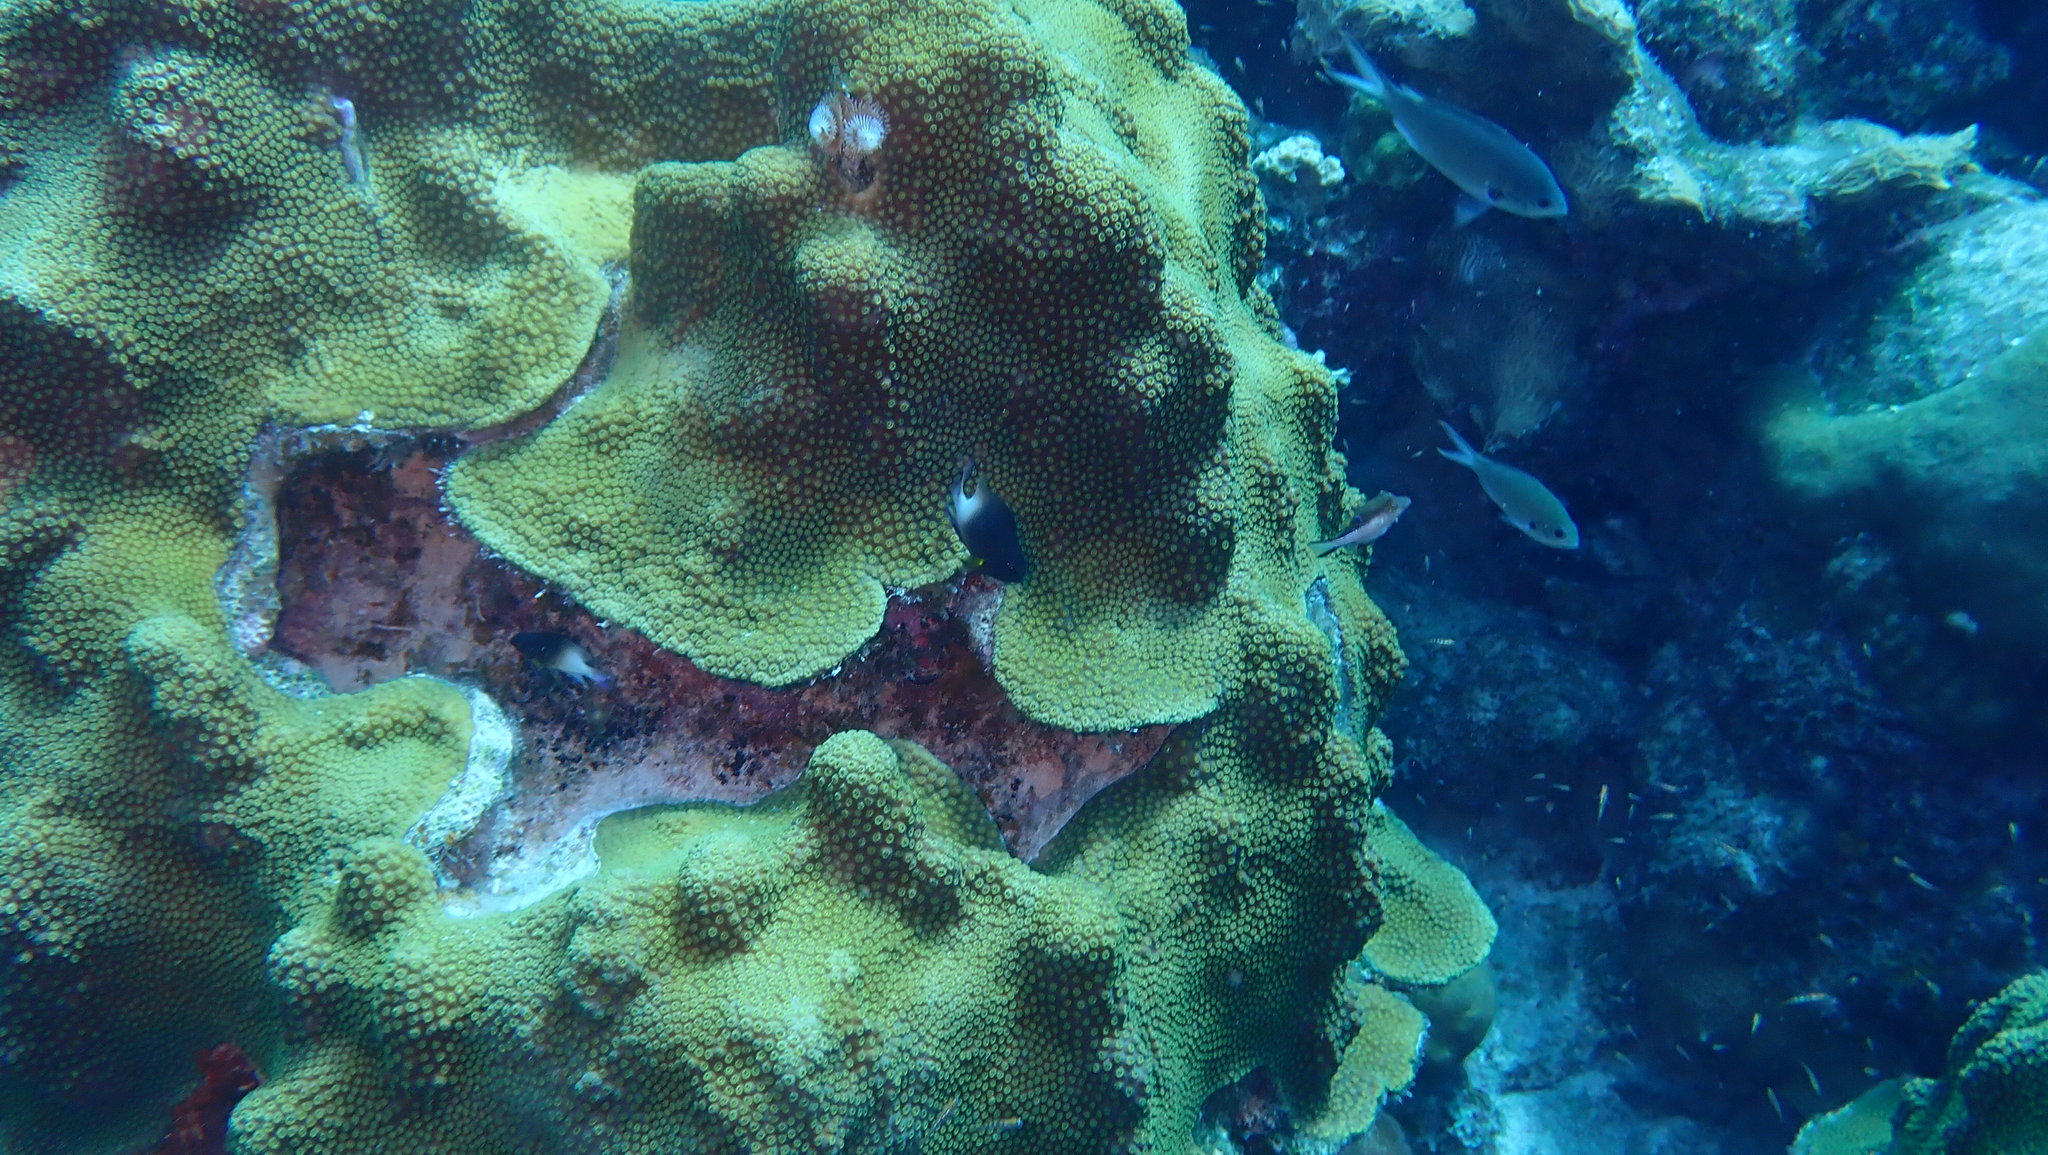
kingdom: Animalia
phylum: Cnidaria
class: Anthozoa
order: Scleractinia
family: Merulinidae
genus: Orbicella
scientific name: Orbicella faveolata
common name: Mountainous star coral
